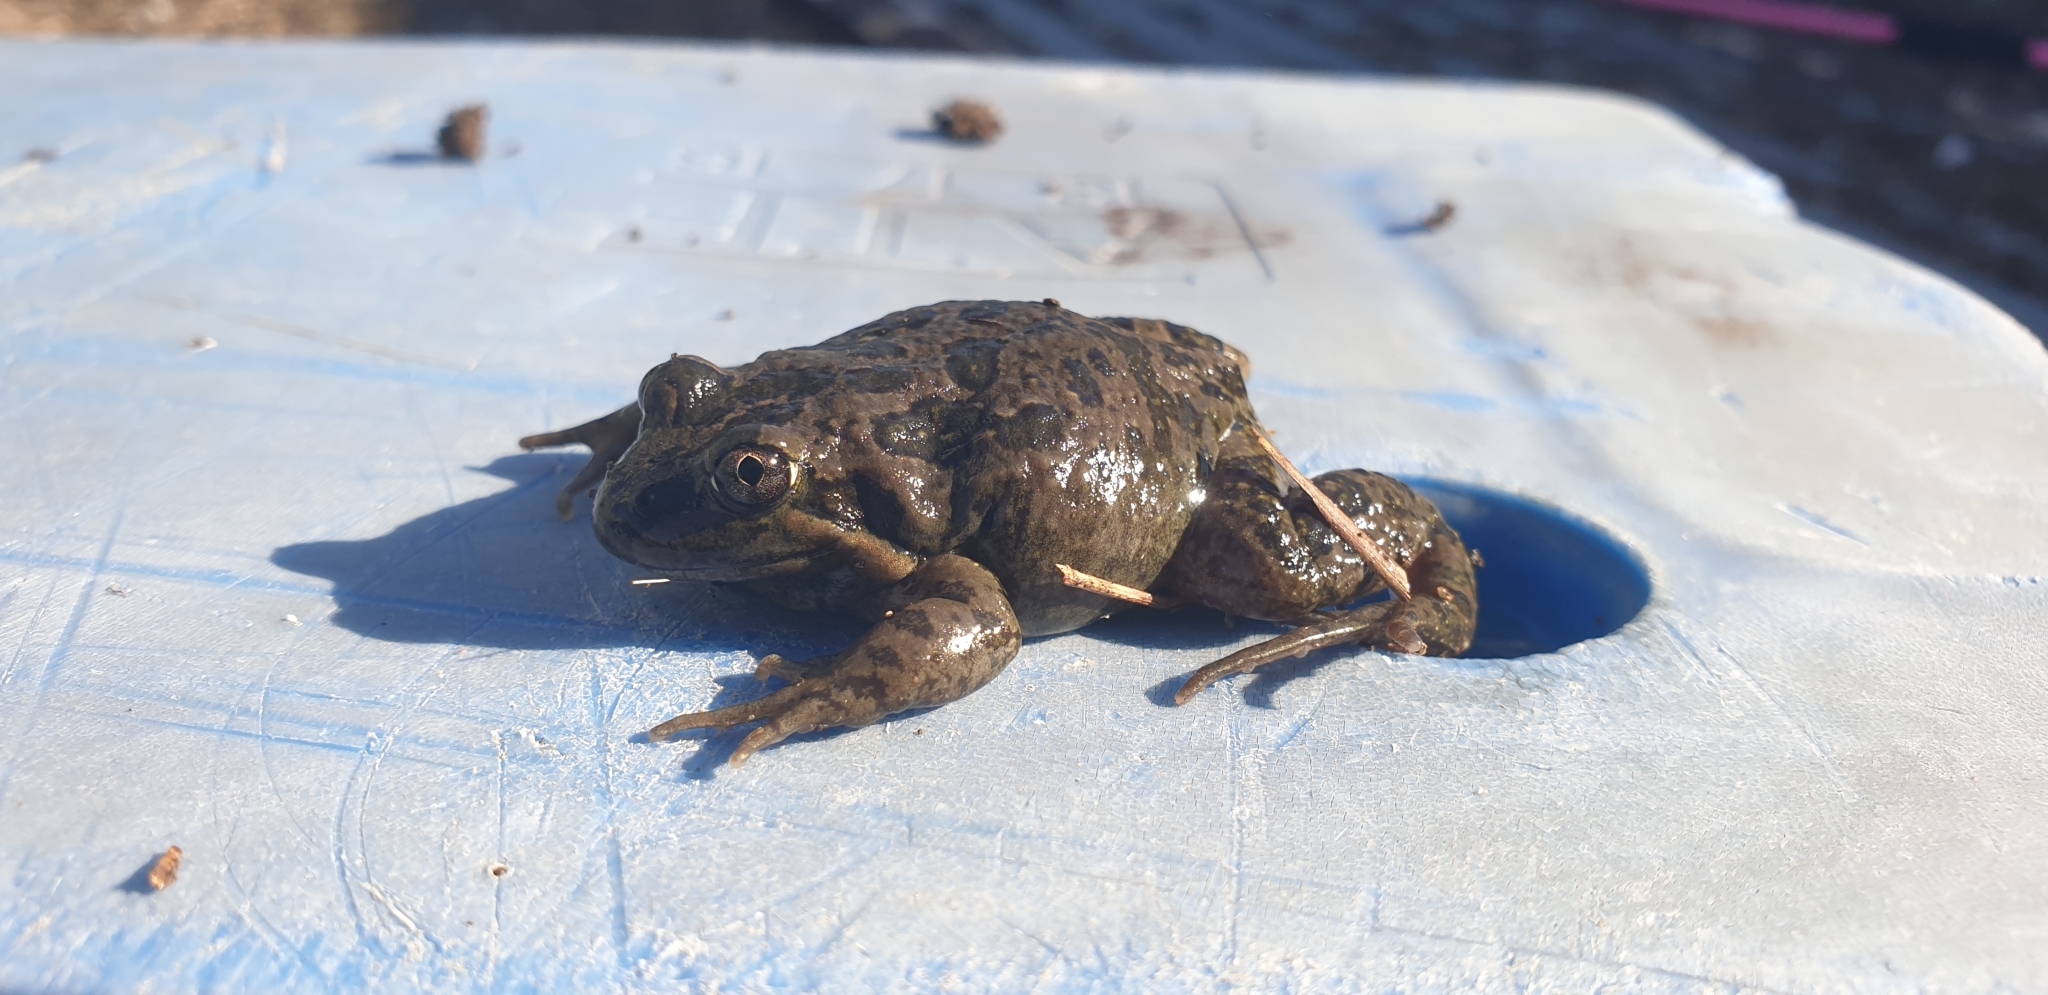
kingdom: Animalia
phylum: Chordata
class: Amphibia
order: Anura
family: Limnodynastidae
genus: Limnodynastes
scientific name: Limnodynastes tasmaniensis
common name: Spotted marsh frog
